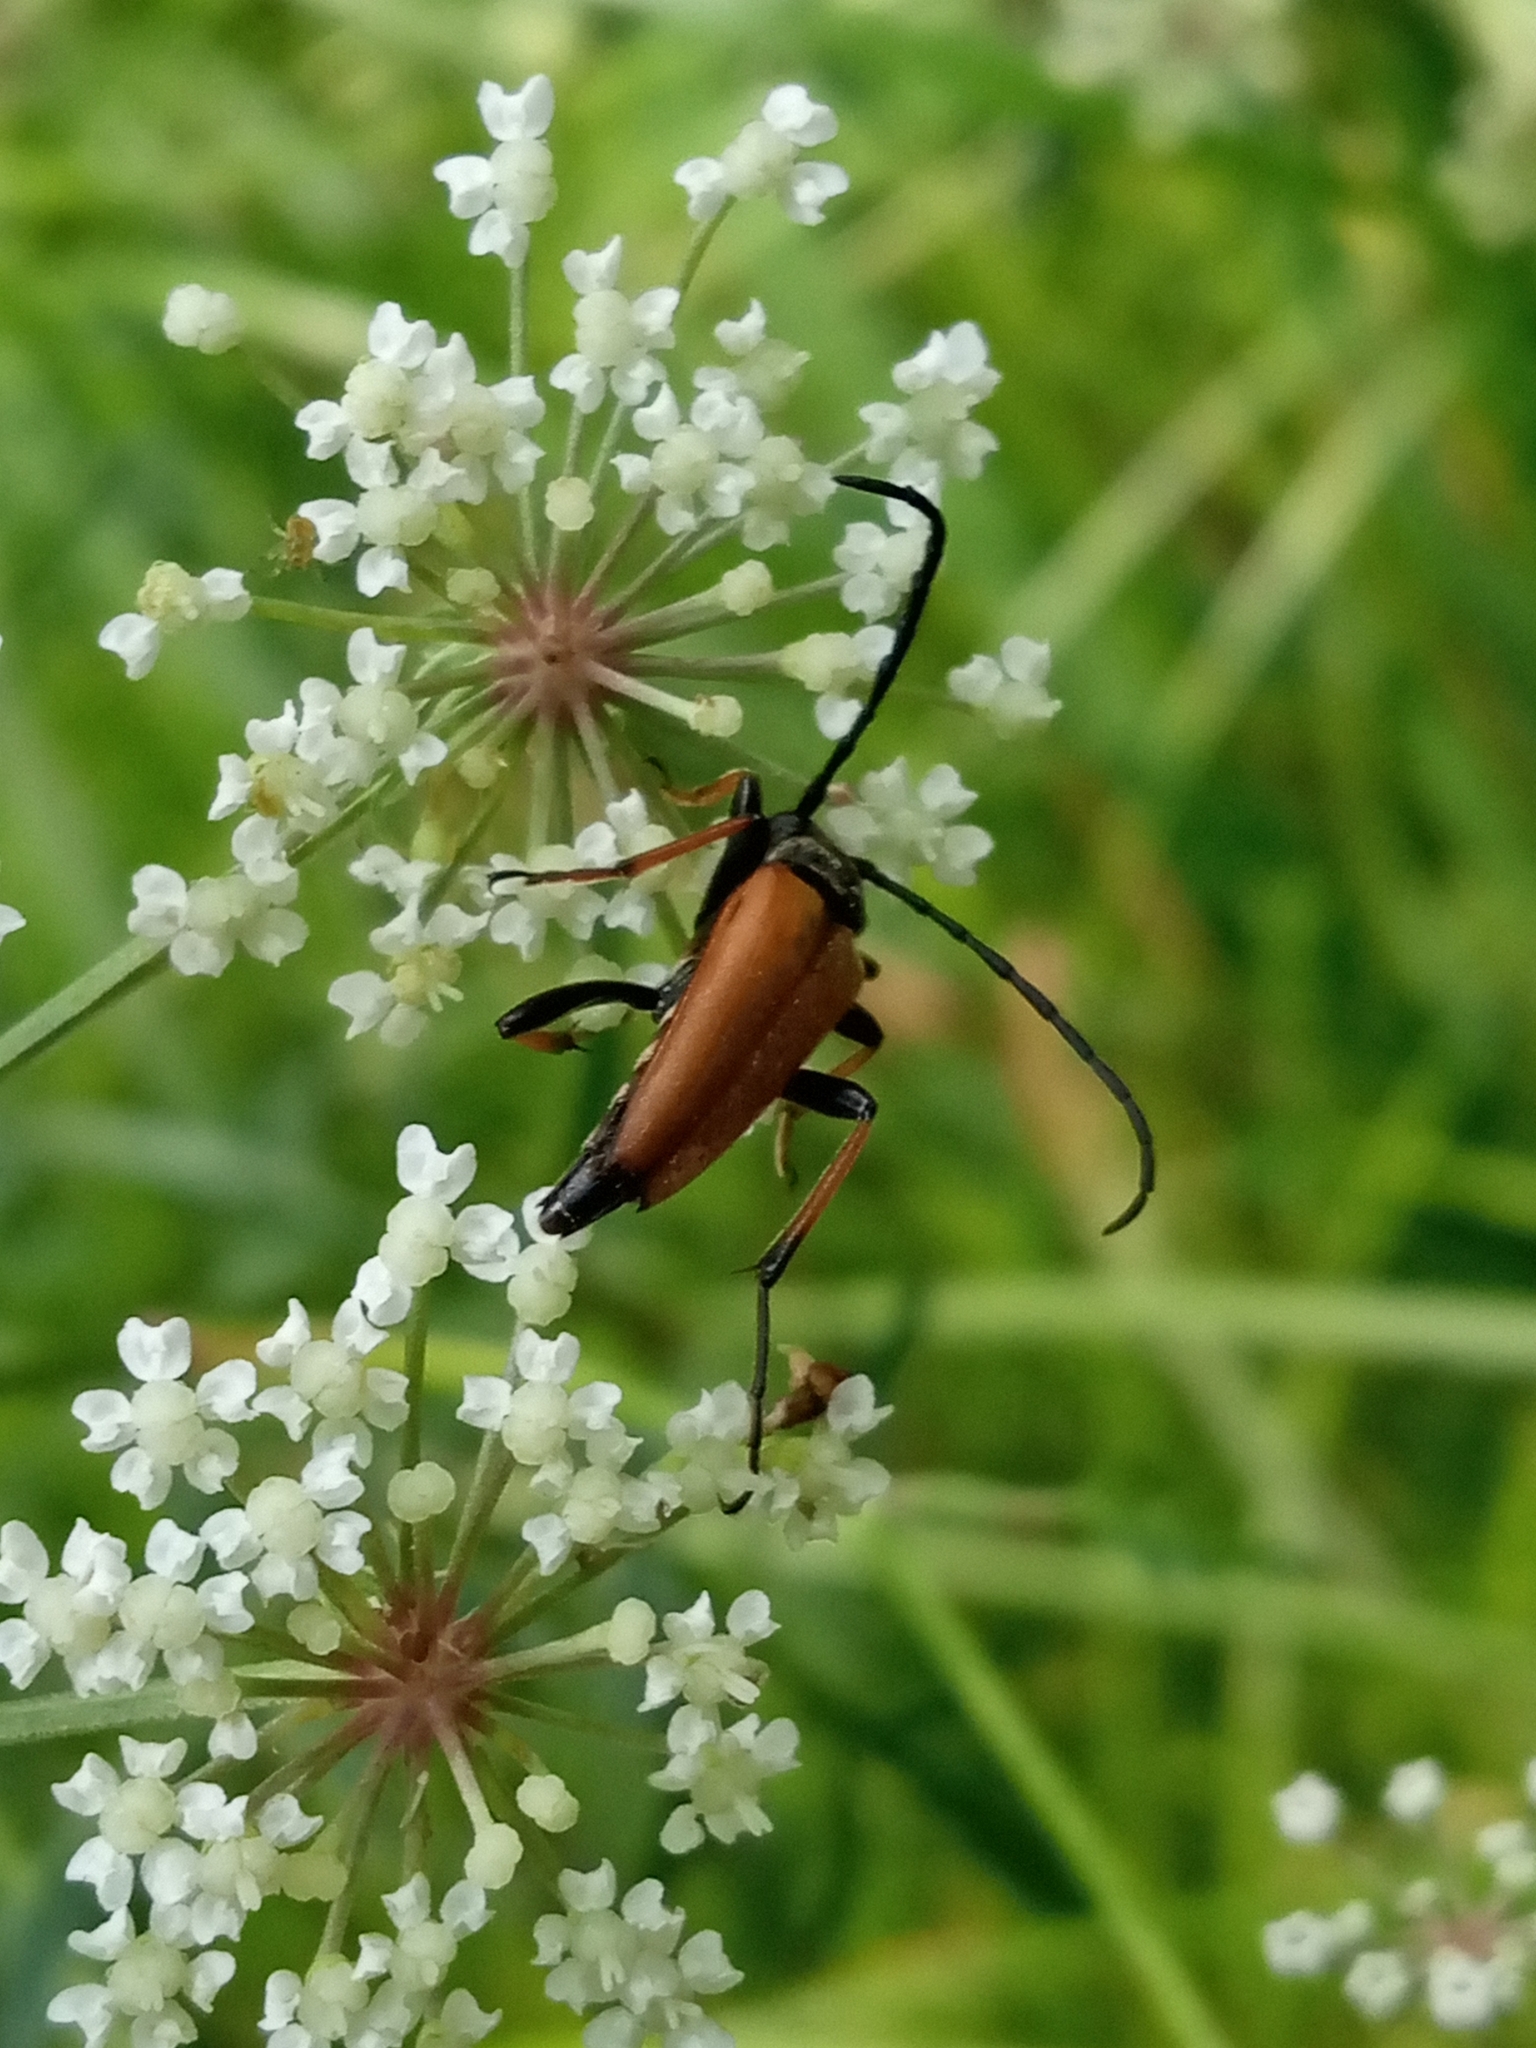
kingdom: Animalia
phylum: Arthropoda
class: Insecta
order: Coleoptera
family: Cerambycidae
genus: Stictoleptura
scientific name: Stictoleptura rubra
